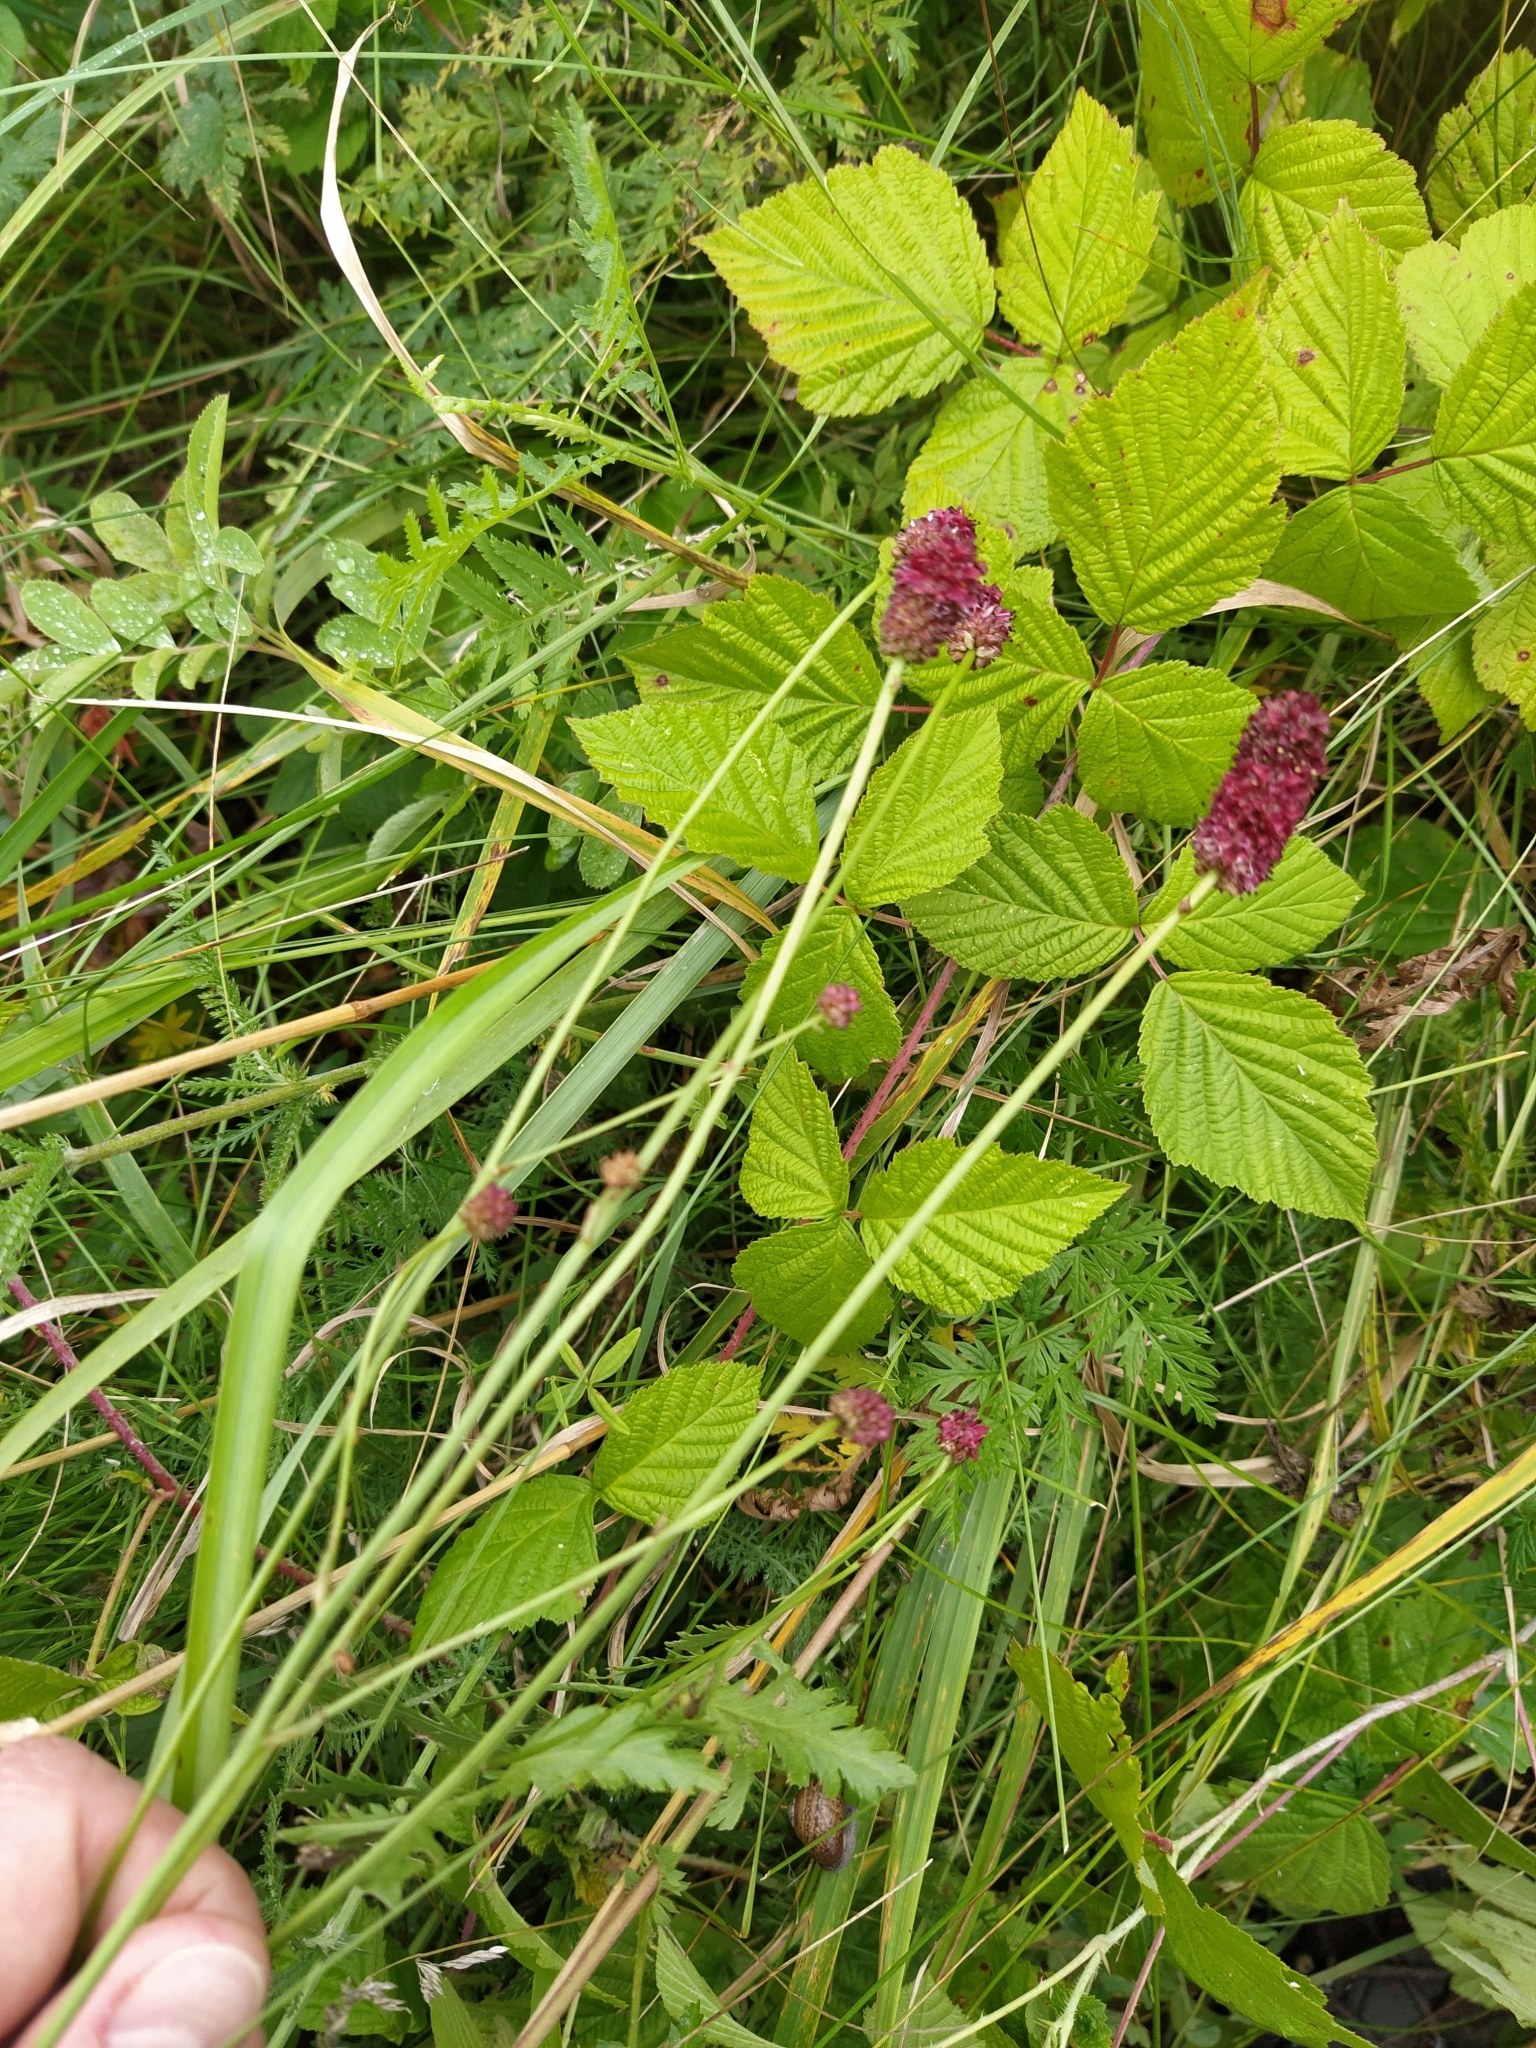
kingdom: Plantae
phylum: Tracheophyta
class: Magnoliopsida
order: Rosales
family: Rosaceae
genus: Sanguisorba
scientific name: Sanguisorba officinalis
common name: Great burnet
